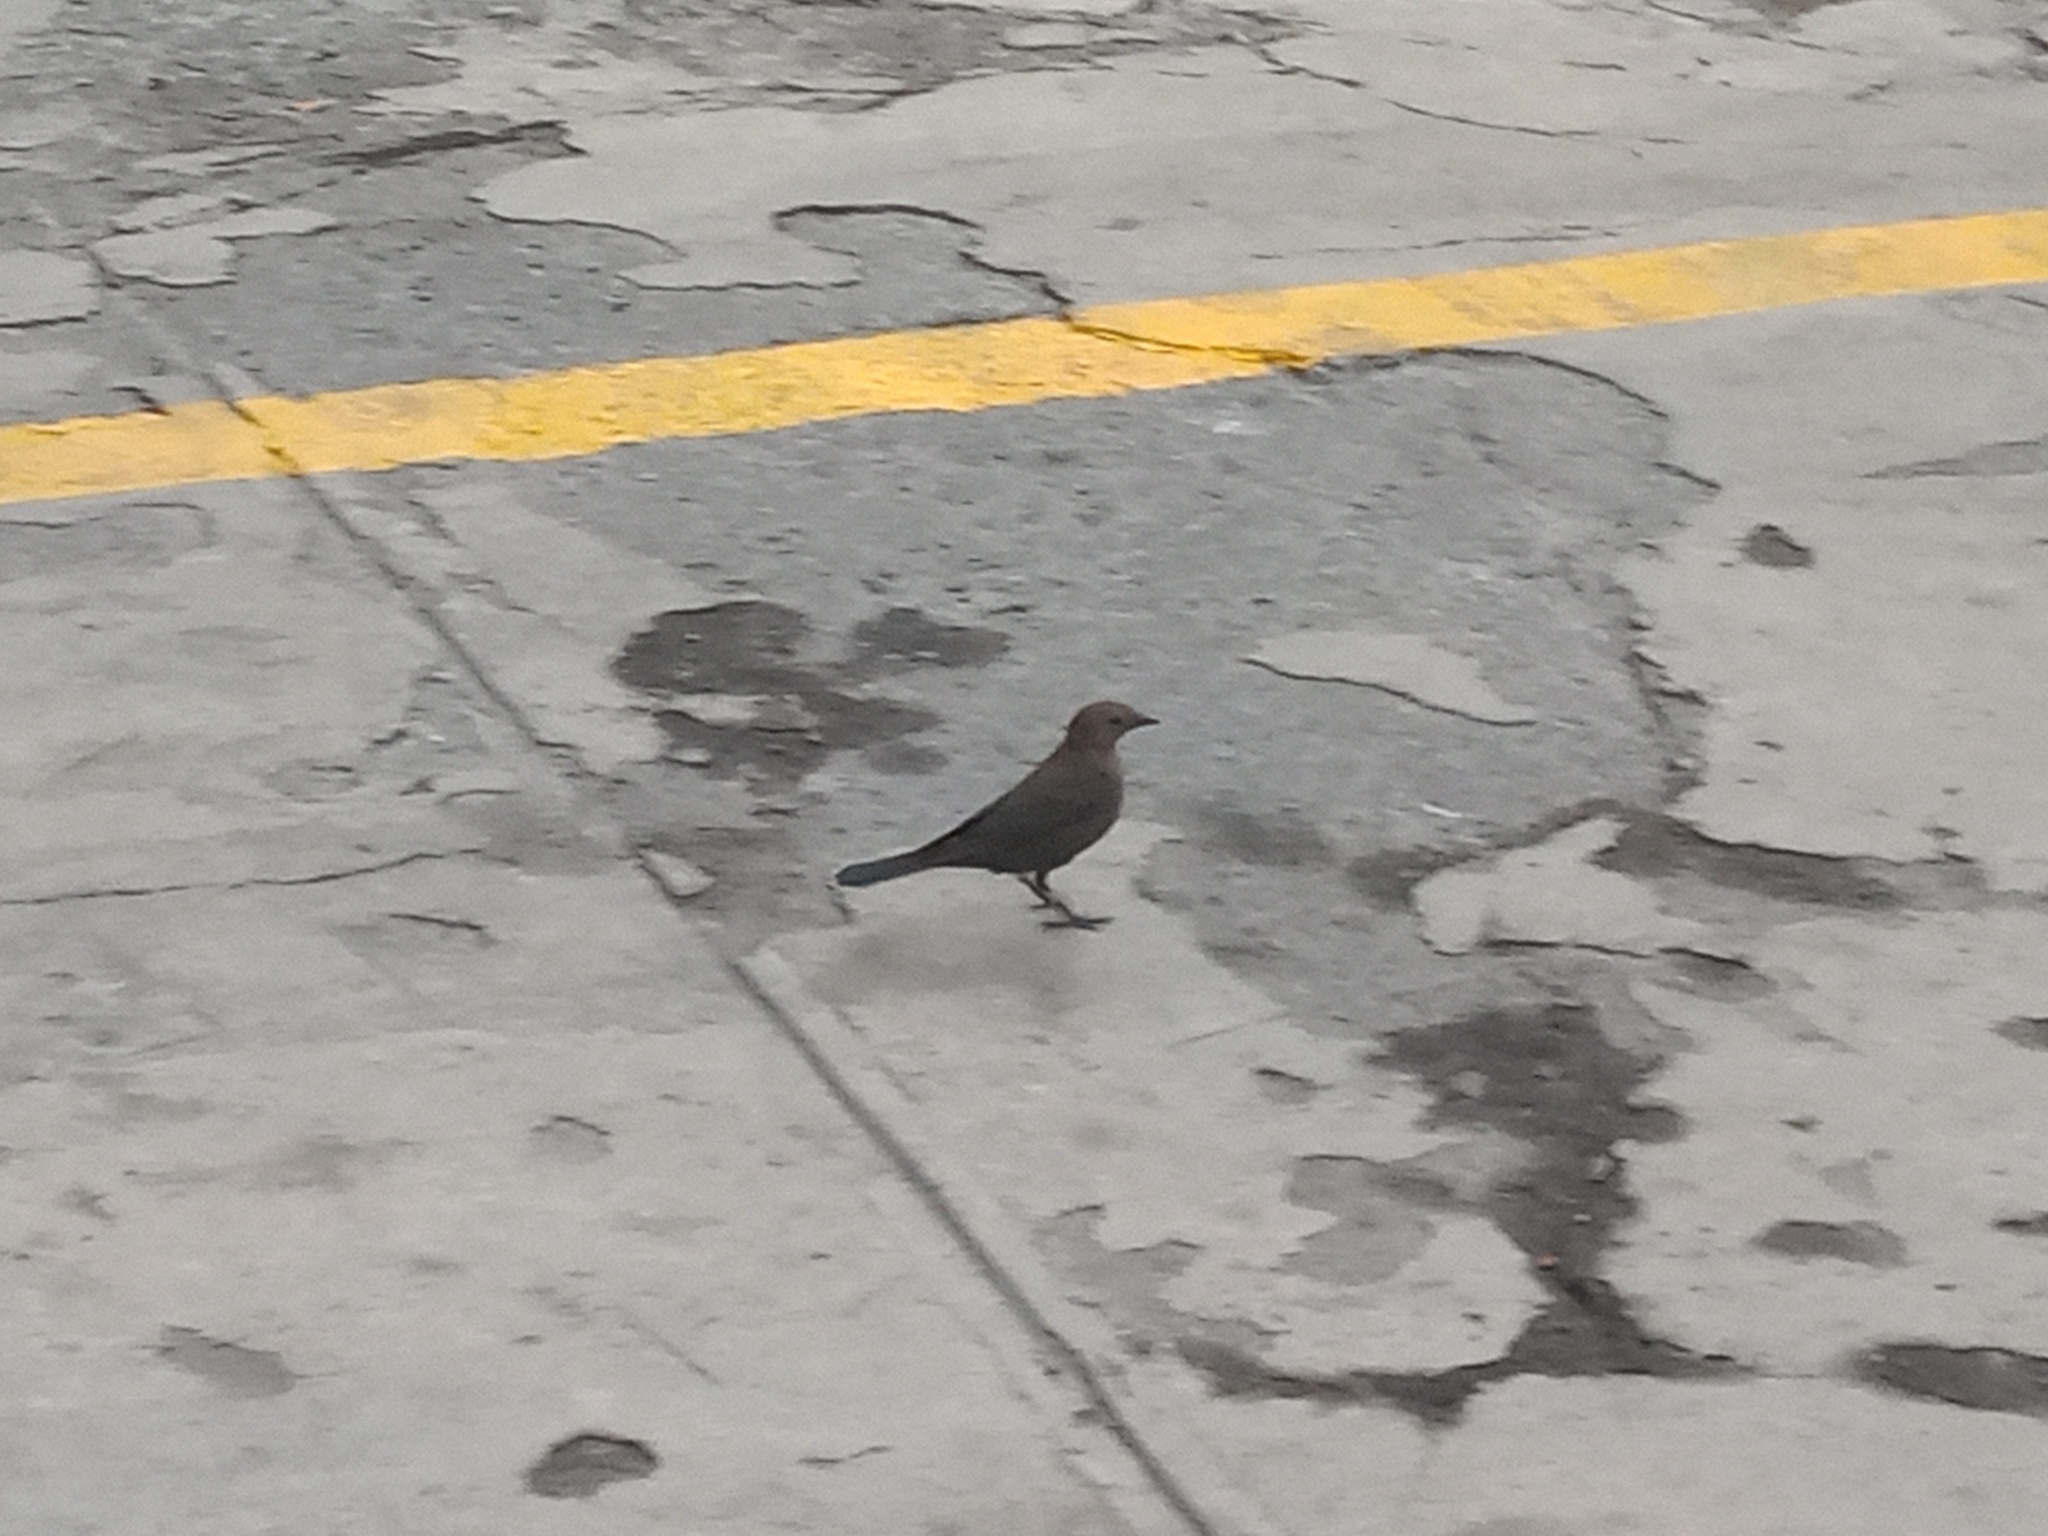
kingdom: Animalia
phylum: Chordata
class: Aves
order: Passeriformes
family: Icteridae
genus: Euphagus
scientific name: Euphagus cyanocephalus
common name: Brewer's blackbird
